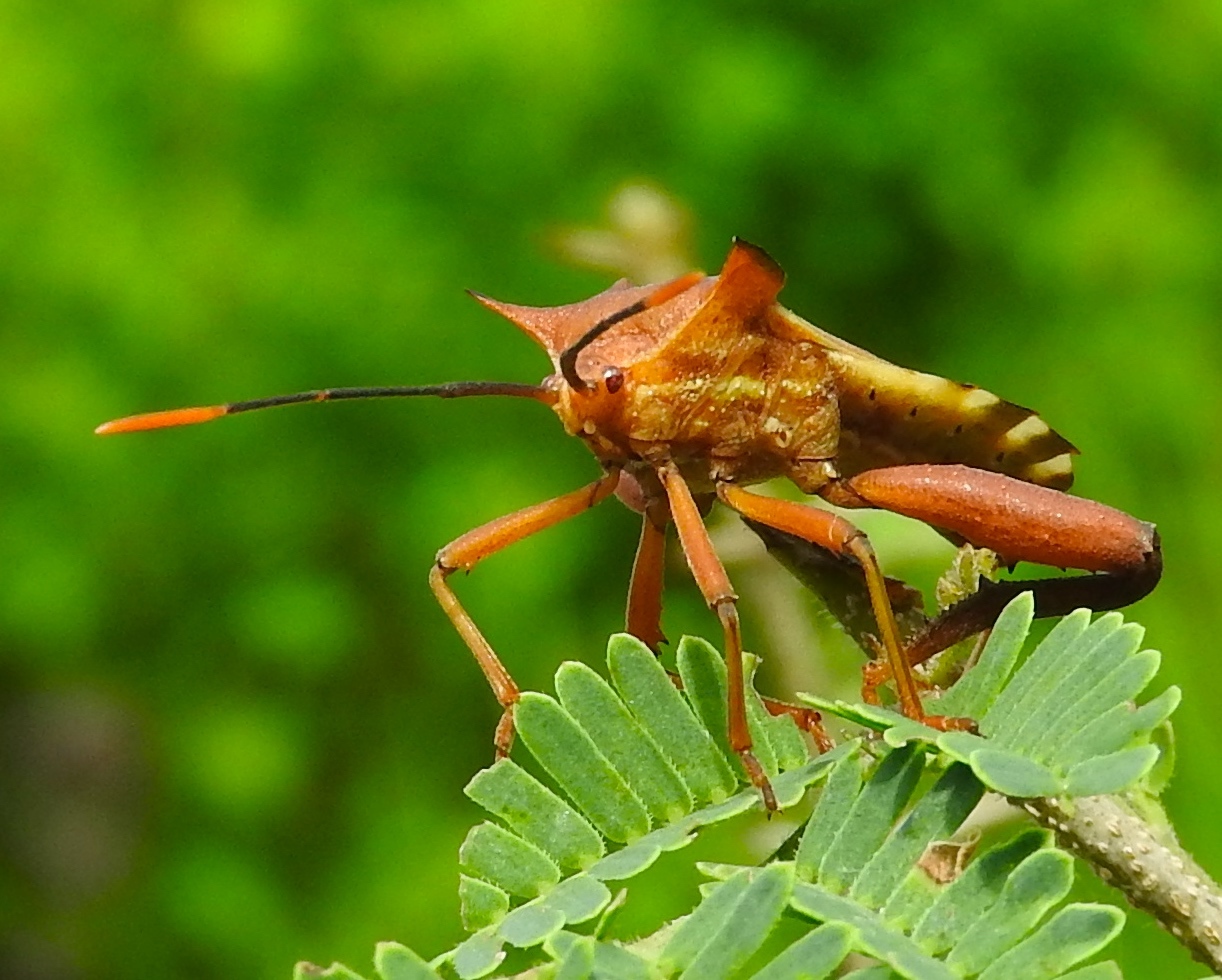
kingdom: Animalia
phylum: Arthropoda
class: Insecta
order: Hemiptera
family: Coreidae
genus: Mozena
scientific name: Mozena lunata
